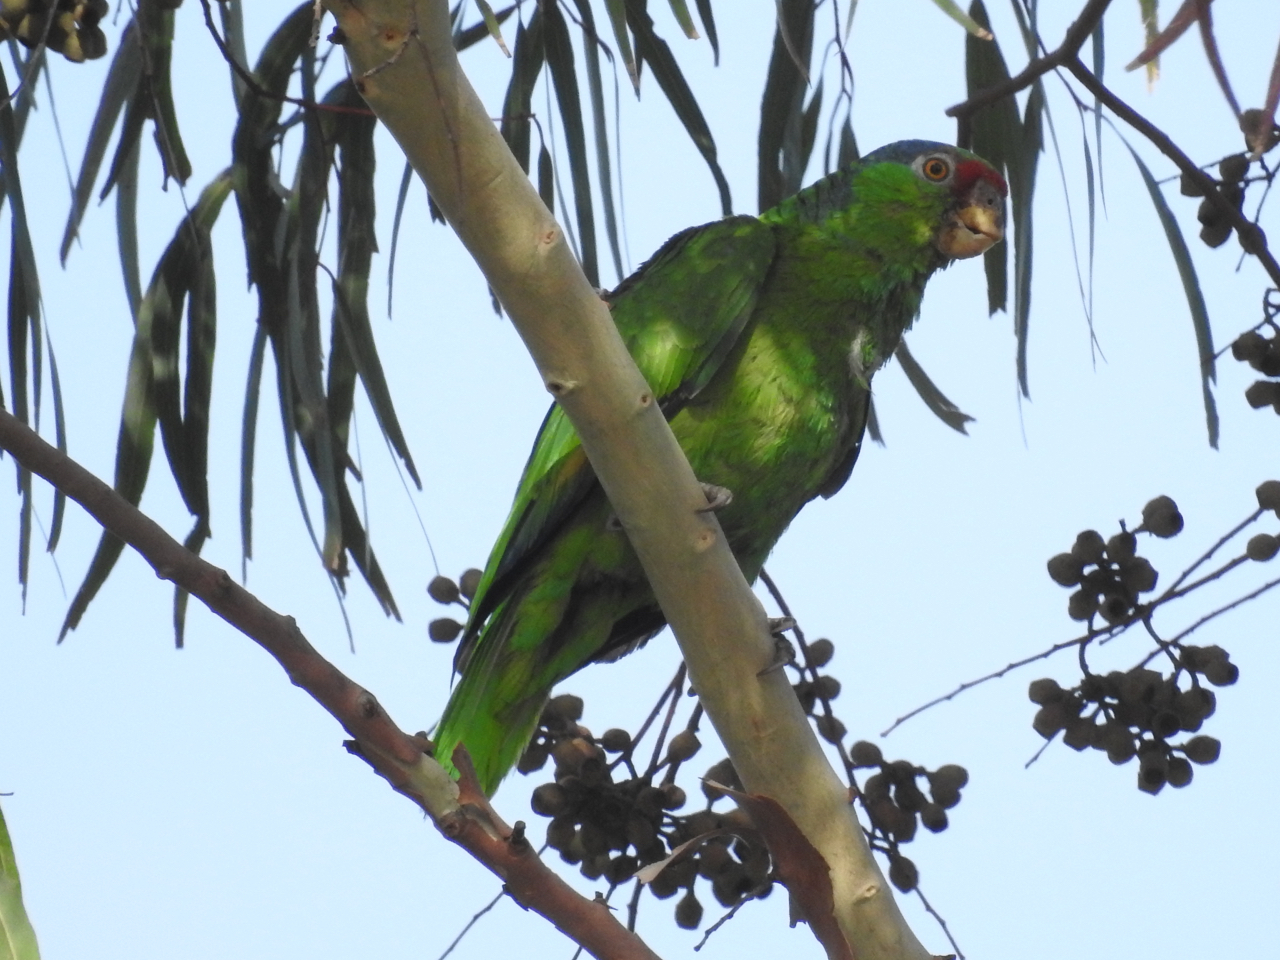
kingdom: Animalia
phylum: Chordata
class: Aves
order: Psittaciformes
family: Psittacidae
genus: Amazona
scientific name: Amazona viridigenalis
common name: Red-crowned amazon
